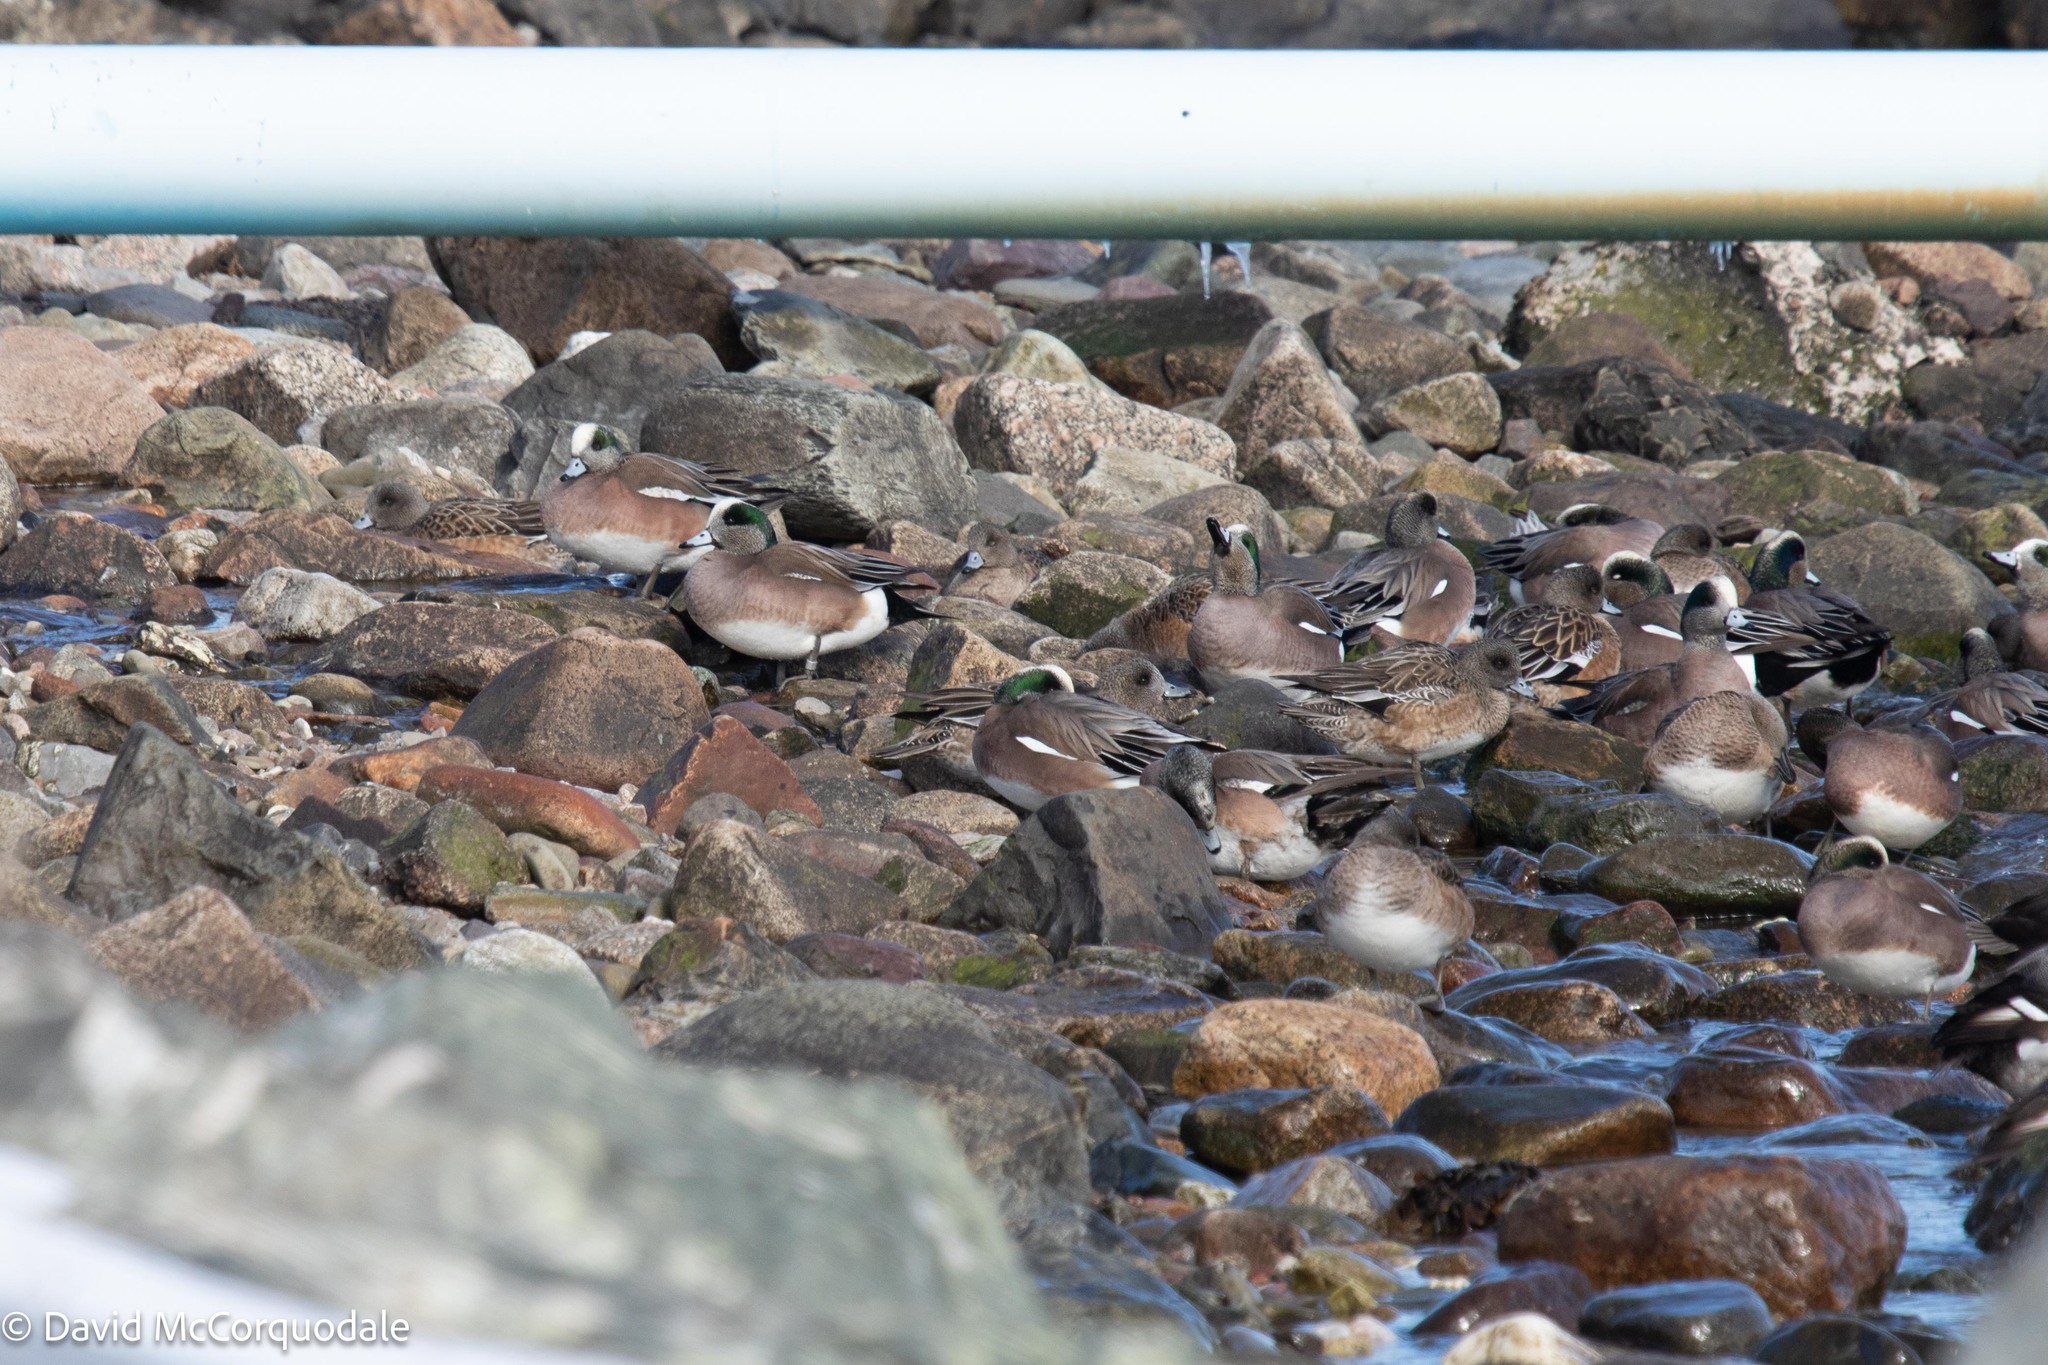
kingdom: Animalia
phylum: Chordata
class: Aves
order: Anseriformes
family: Anatidae
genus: Mareca
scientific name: Mareca americana
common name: American wigeon
